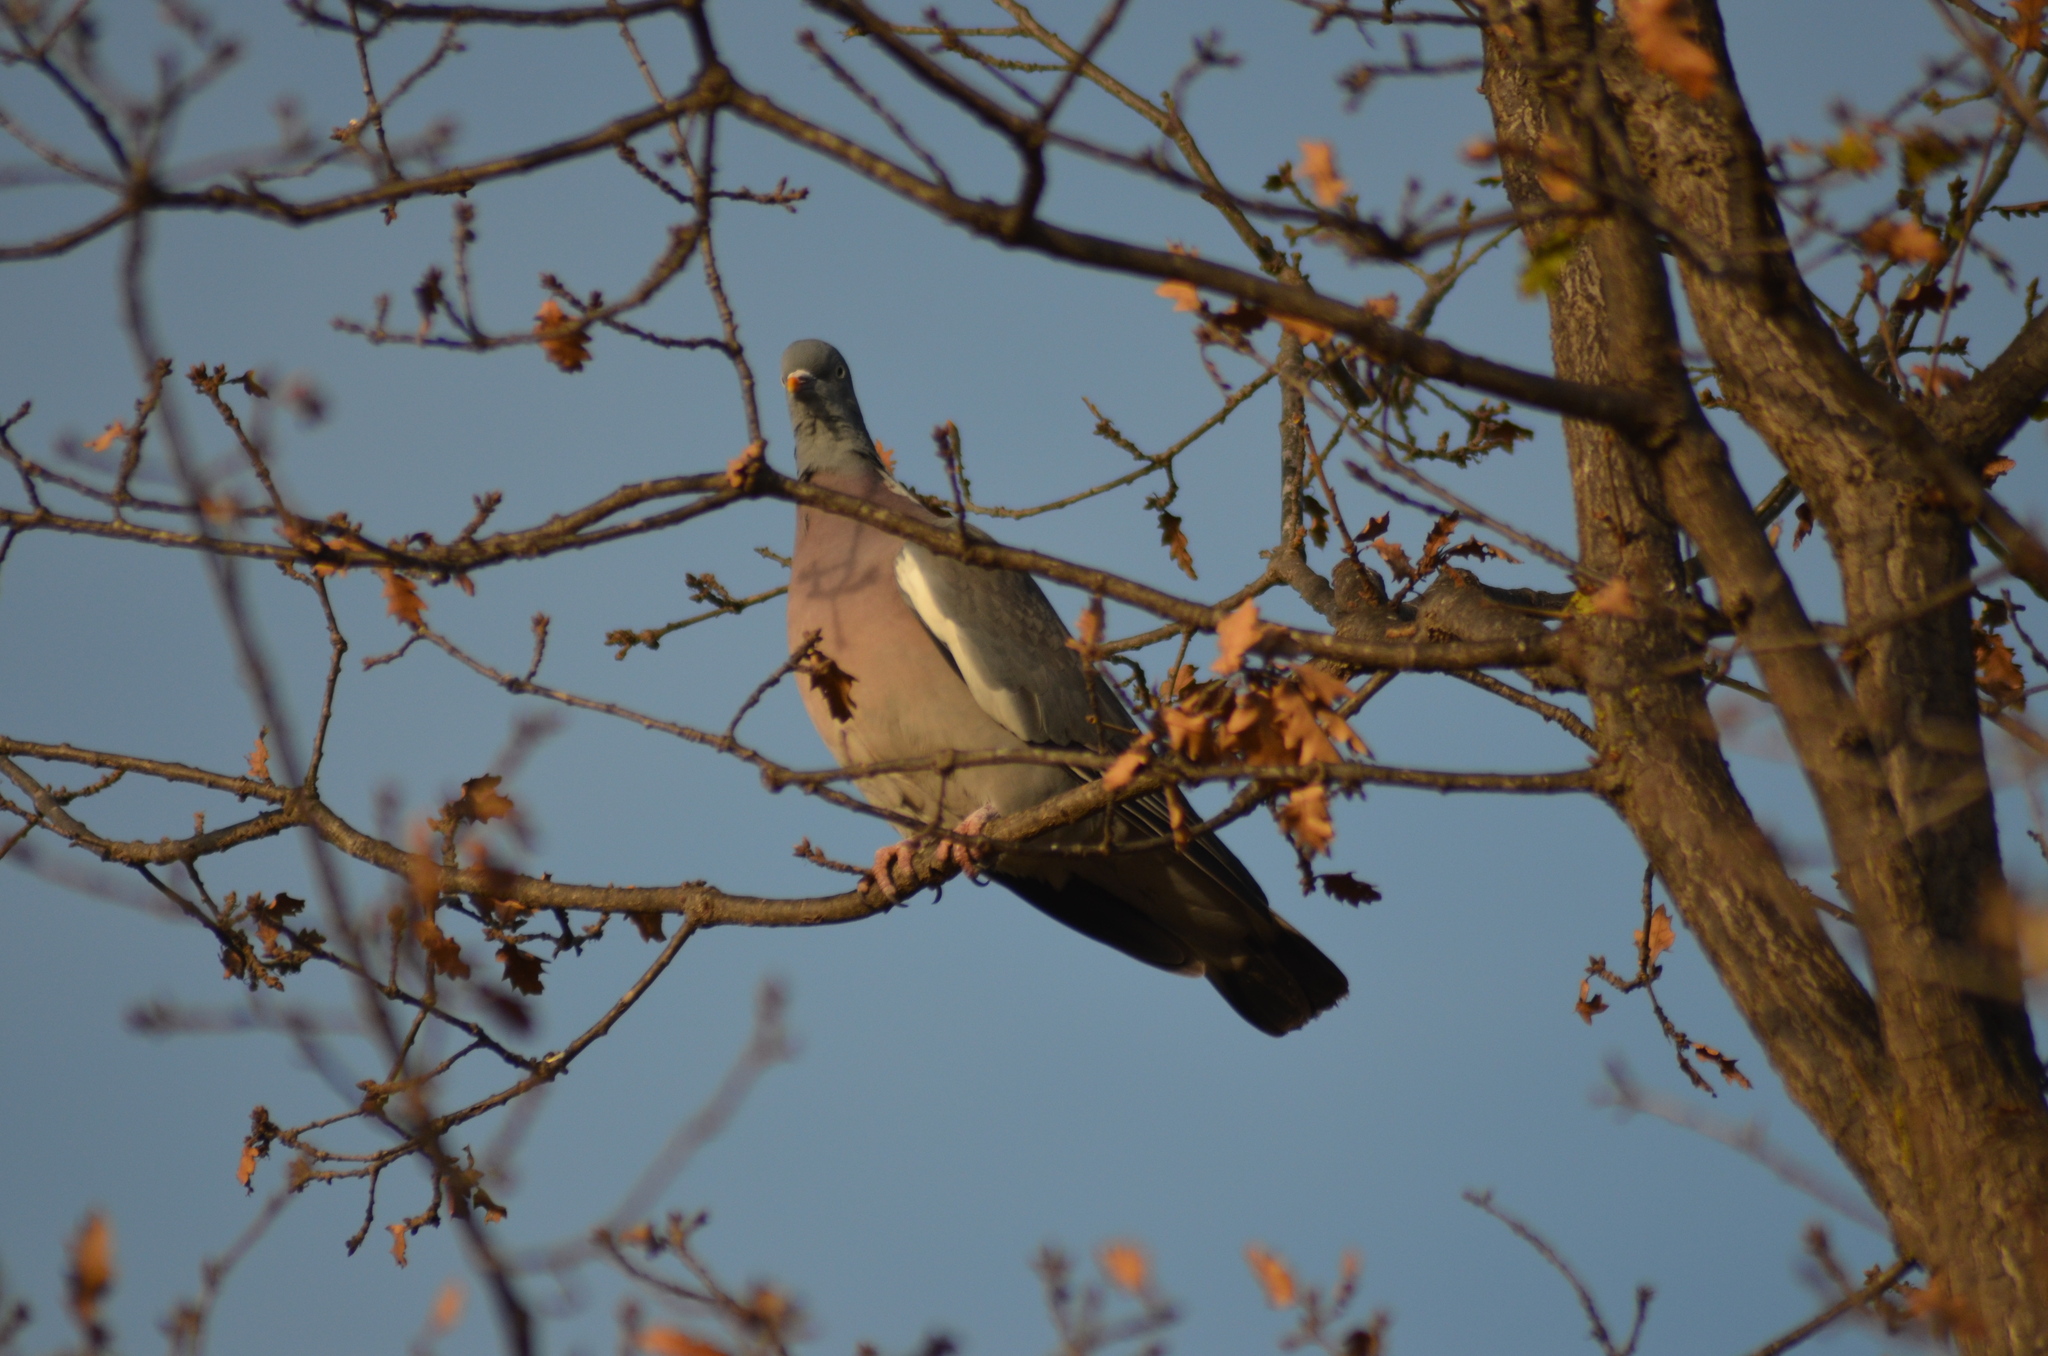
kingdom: Animalia
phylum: Chordata
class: Aves
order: Columbiformes
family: Columbidae
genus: Columba
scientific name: Columba palumbus
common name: Common wood pigeon
